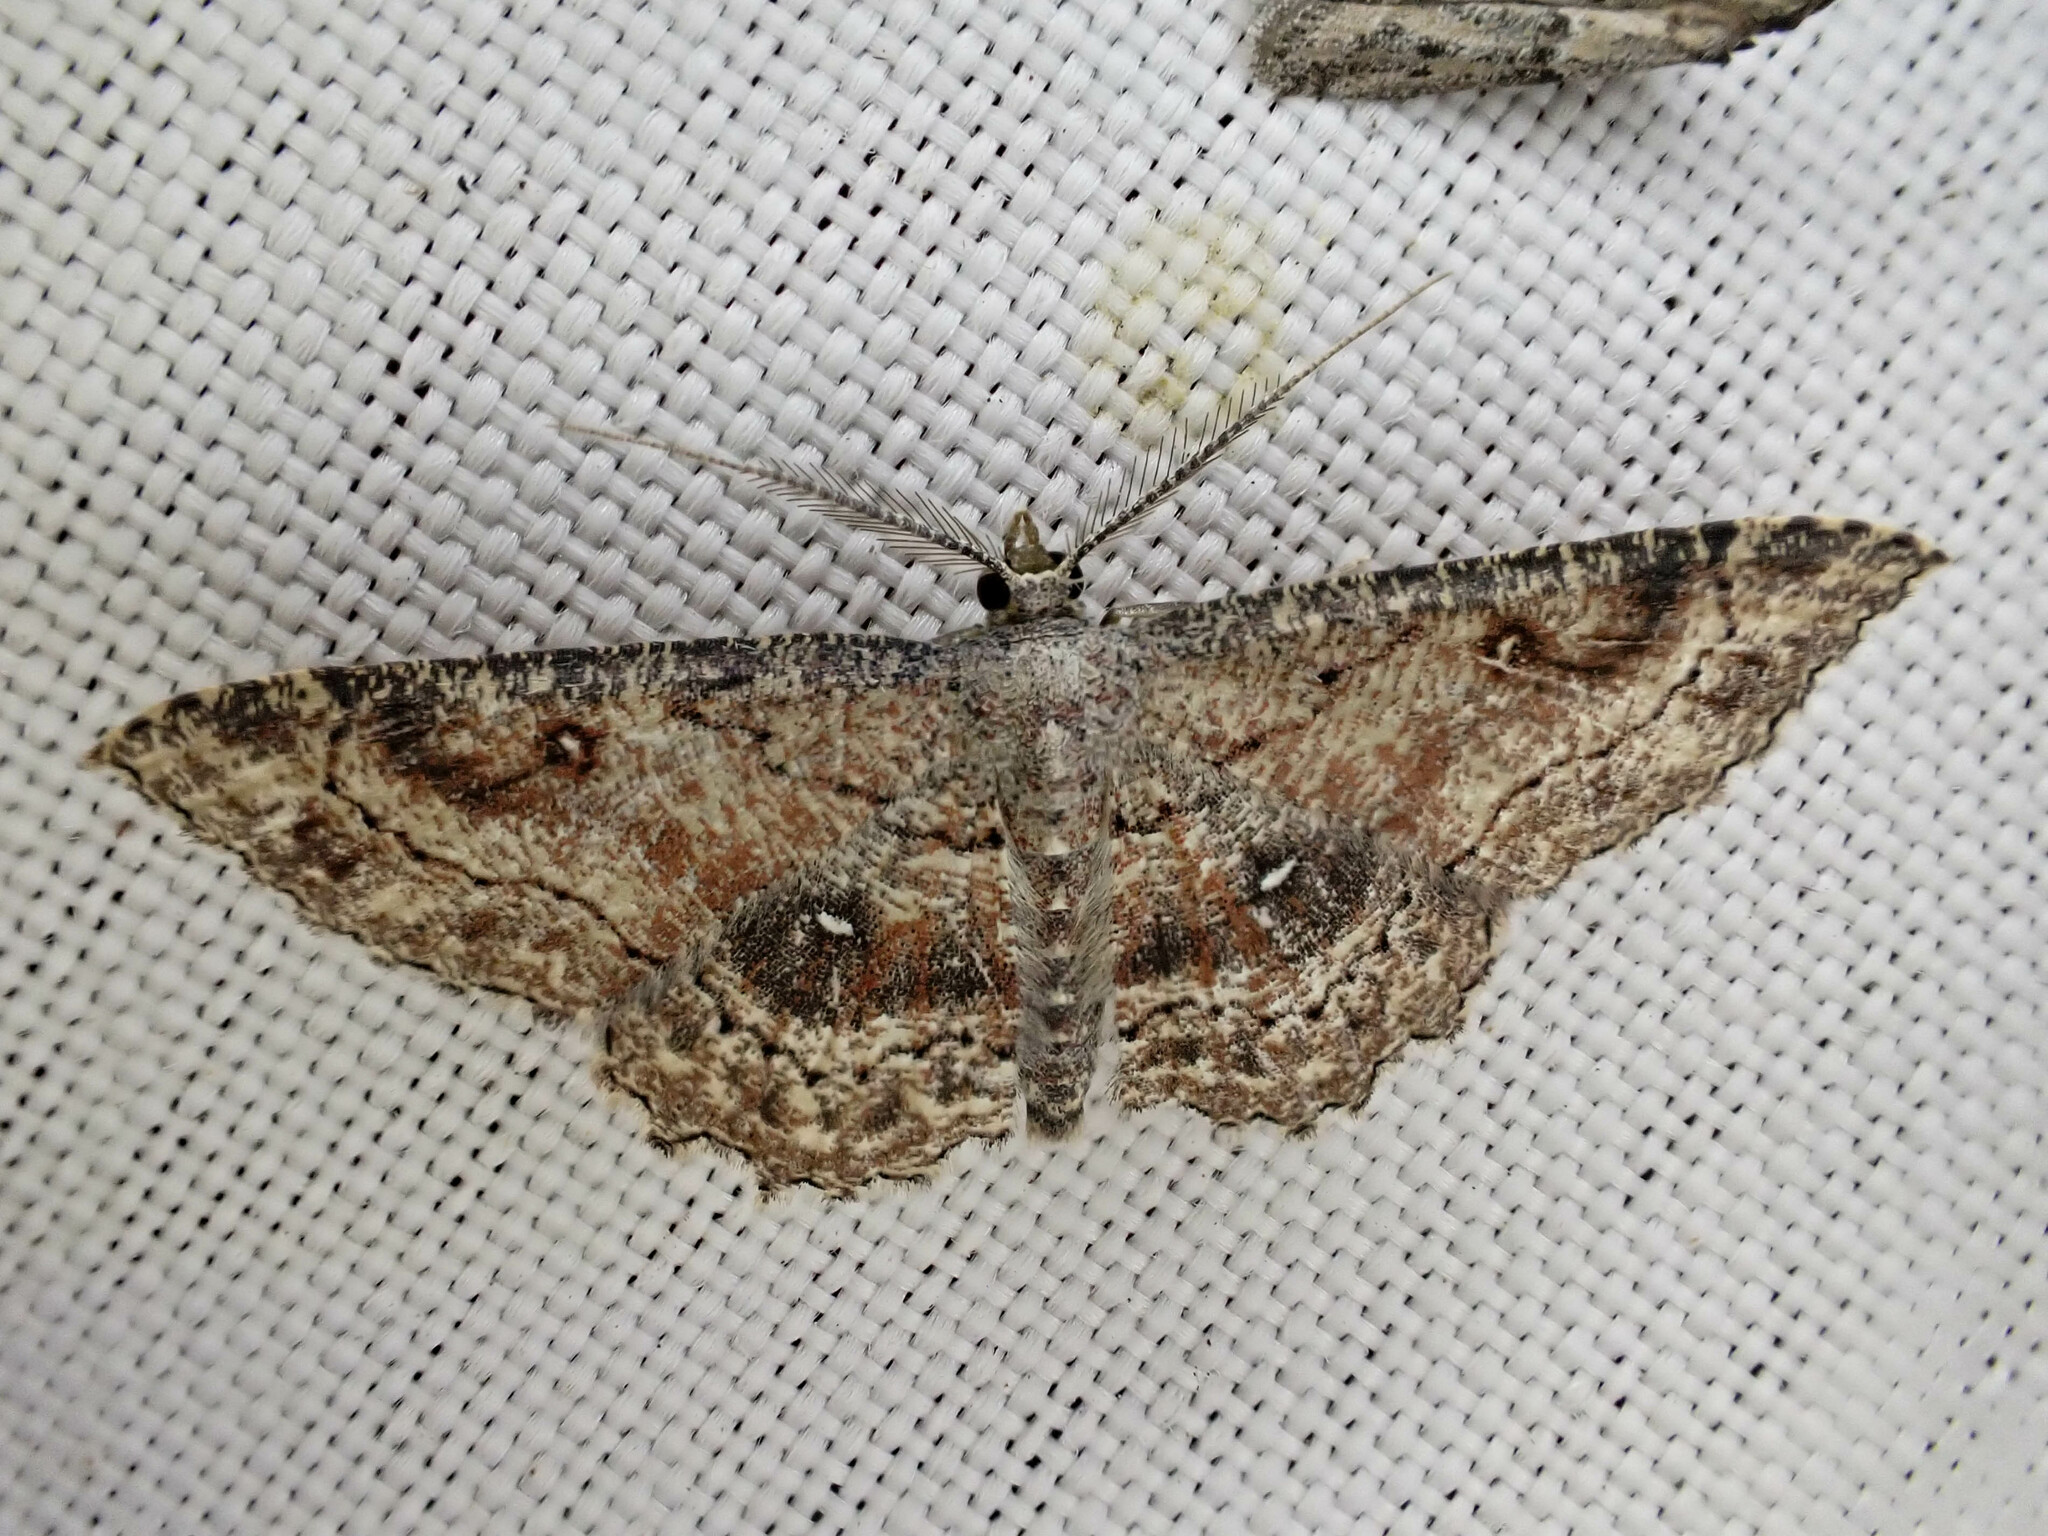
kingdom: Animalia
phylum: Arthropoda
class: Insecta
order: Lepidoptera
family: Geometridae
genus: Cyclophora
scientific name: Cyclophora nanaria
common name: Cankerworm
